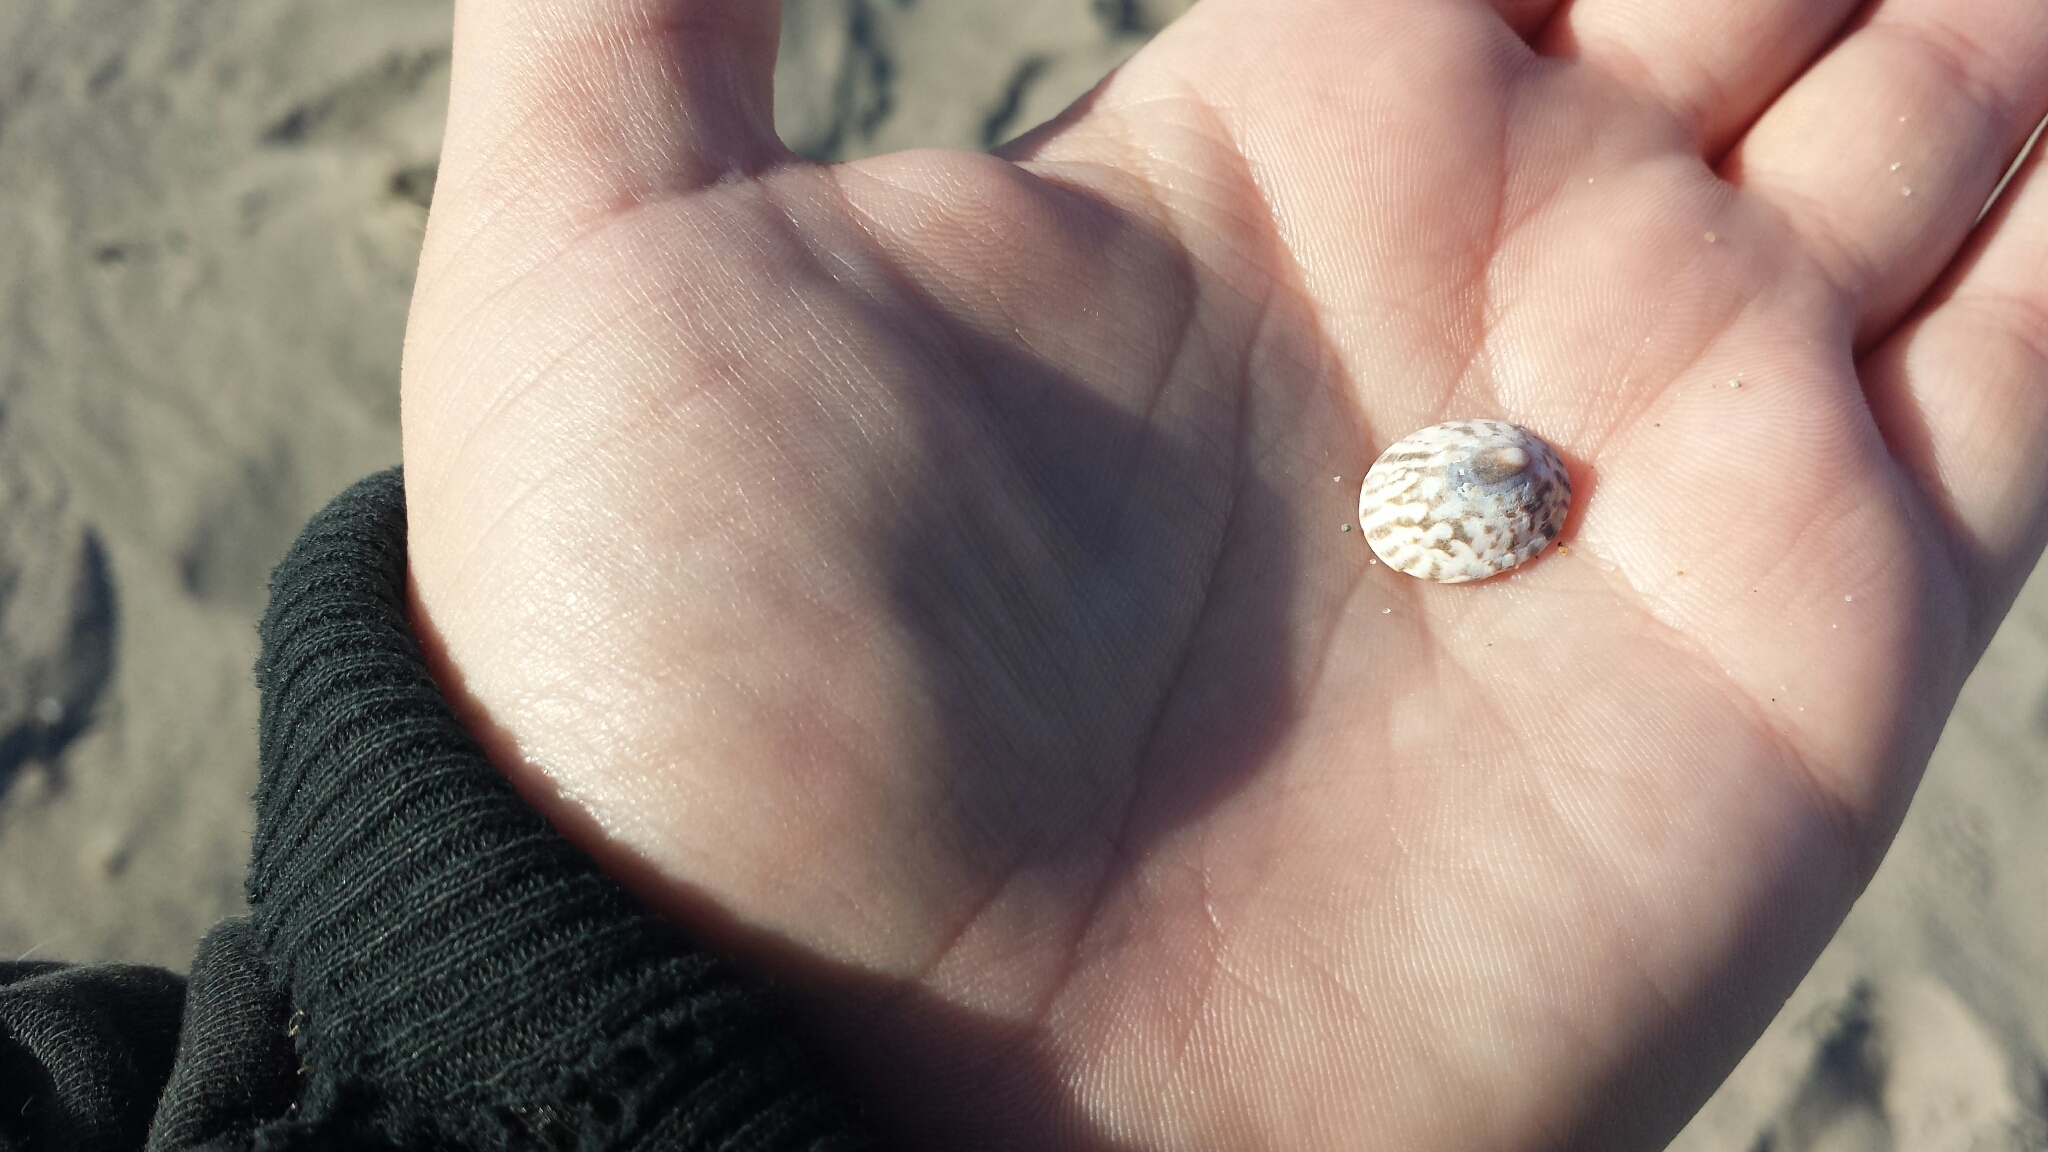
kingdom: Animalia
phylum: Mollusca
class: Gastropoda
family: Lottiidae
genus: Testudinalia
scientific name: Testudinalia testudinalis
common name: Common tortoiseshell limpet
